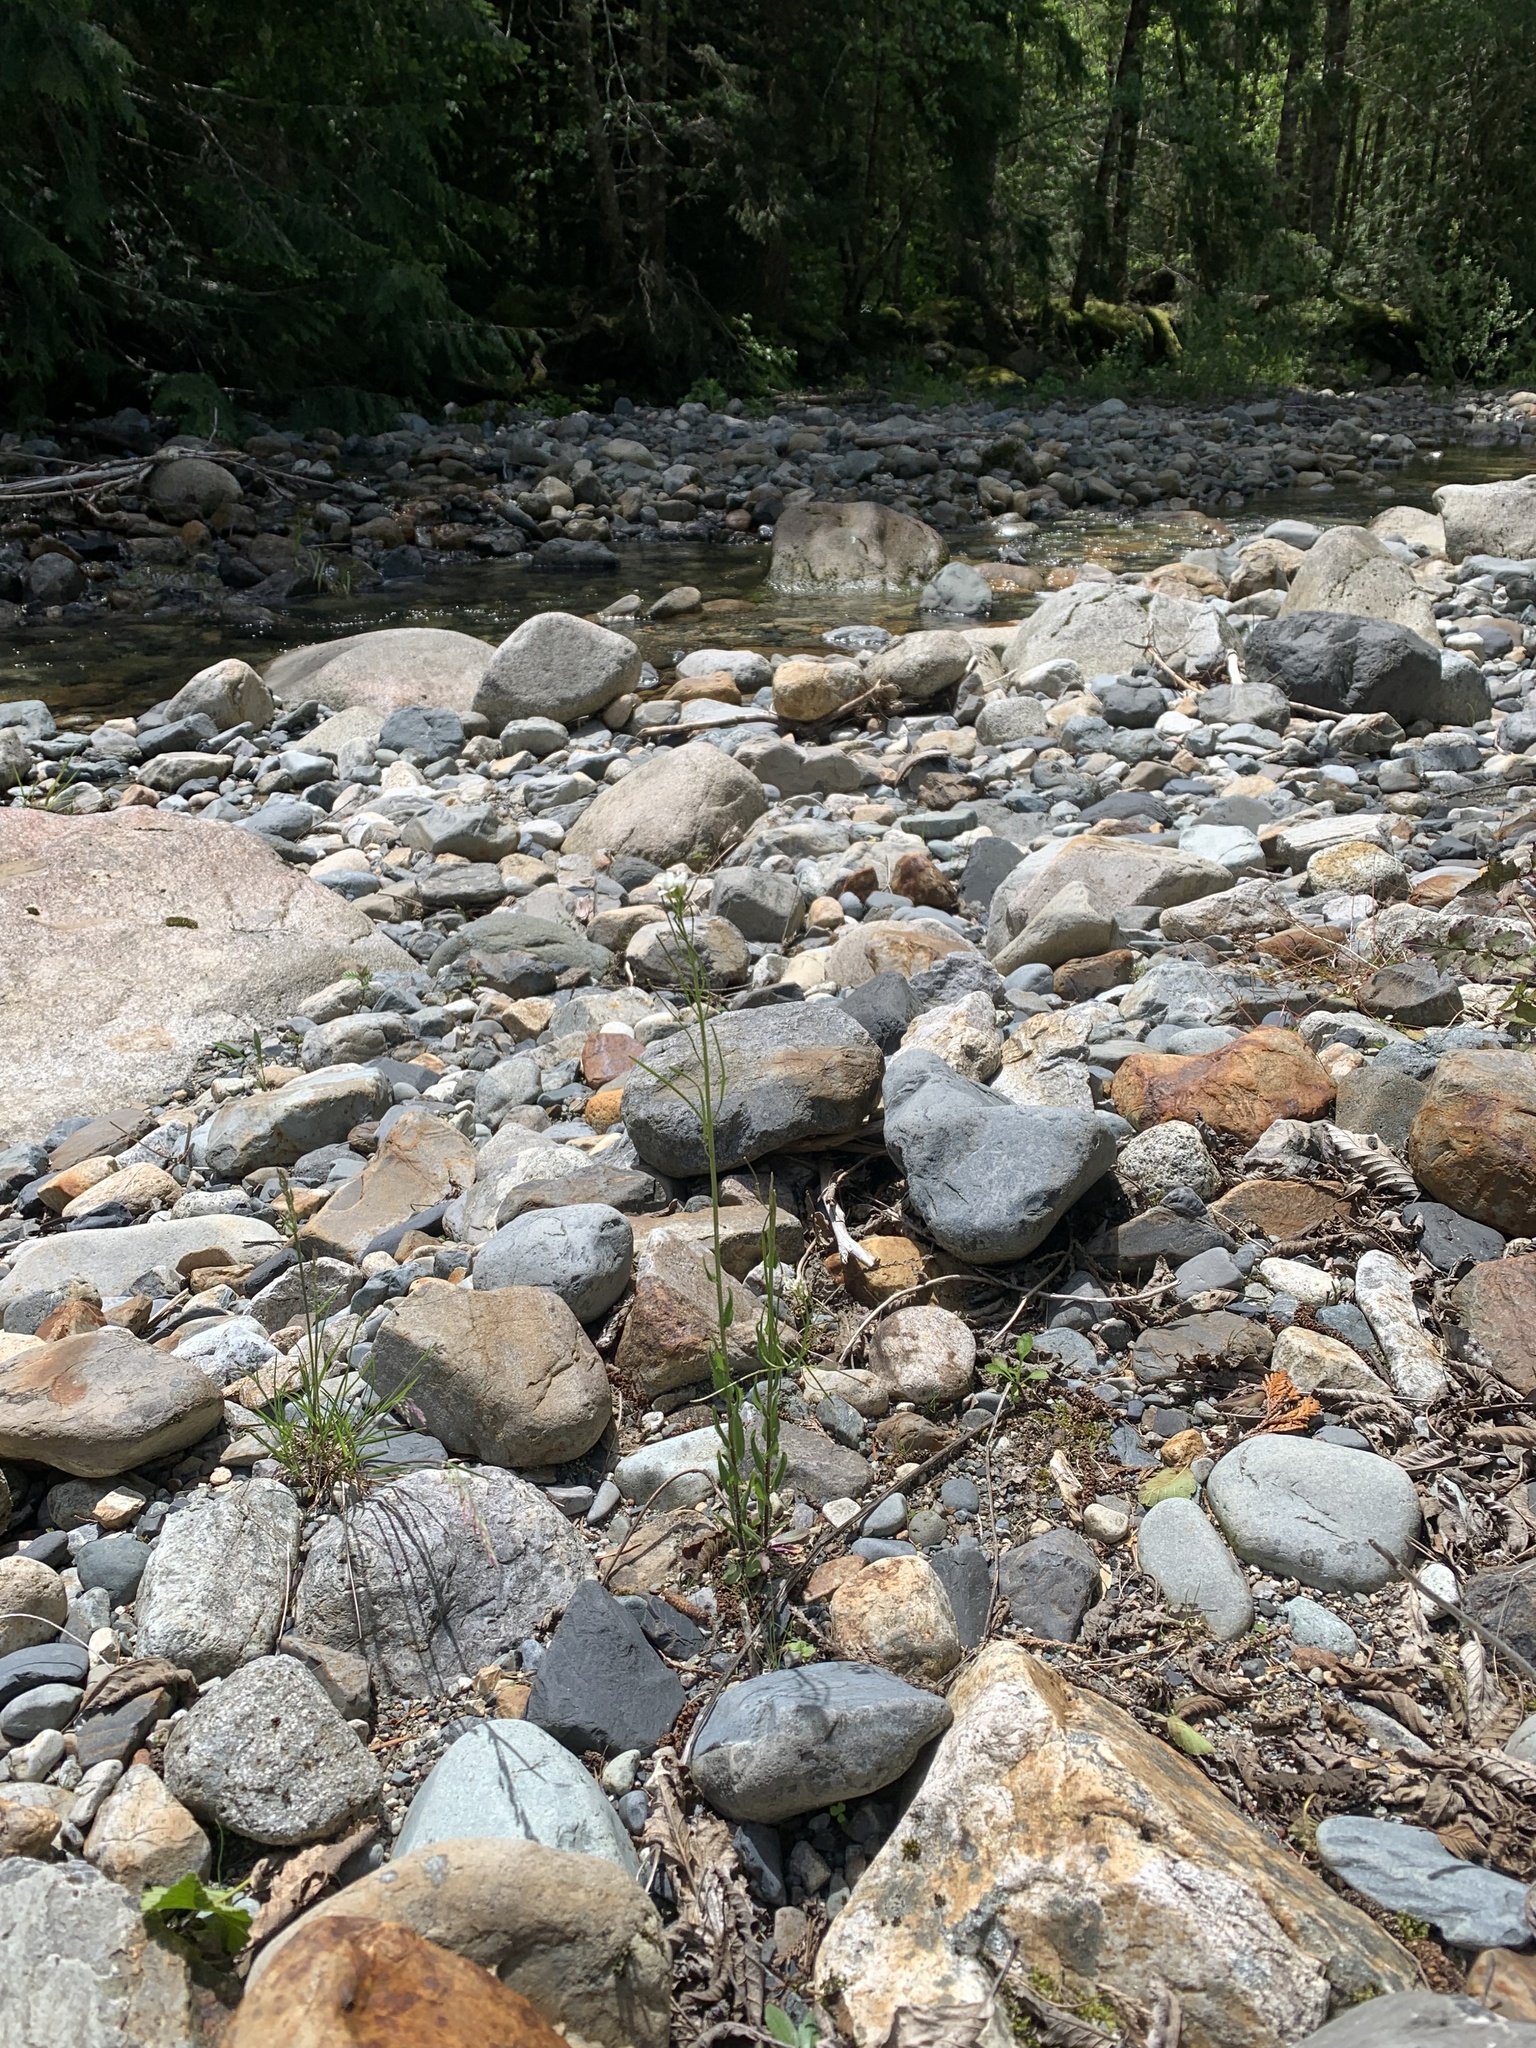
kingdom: Plantae
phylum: Tracheophyta
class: Magnoliopsida
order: Brassicales
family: Brassicaceae
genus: Arabis
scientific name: Arabis eschscholtziana
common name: Eschscholtz's hairy rockcress
